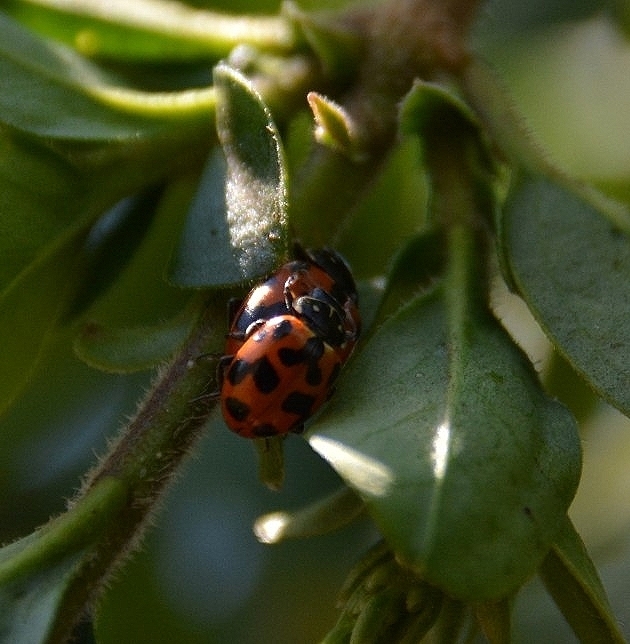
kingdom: Animalia
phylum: Arthropoda
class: Insecta
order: Coleoptera
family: Coccinellidae
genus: Hippodamia
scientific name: Hippodamia variegata
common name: Ladybird beetle
